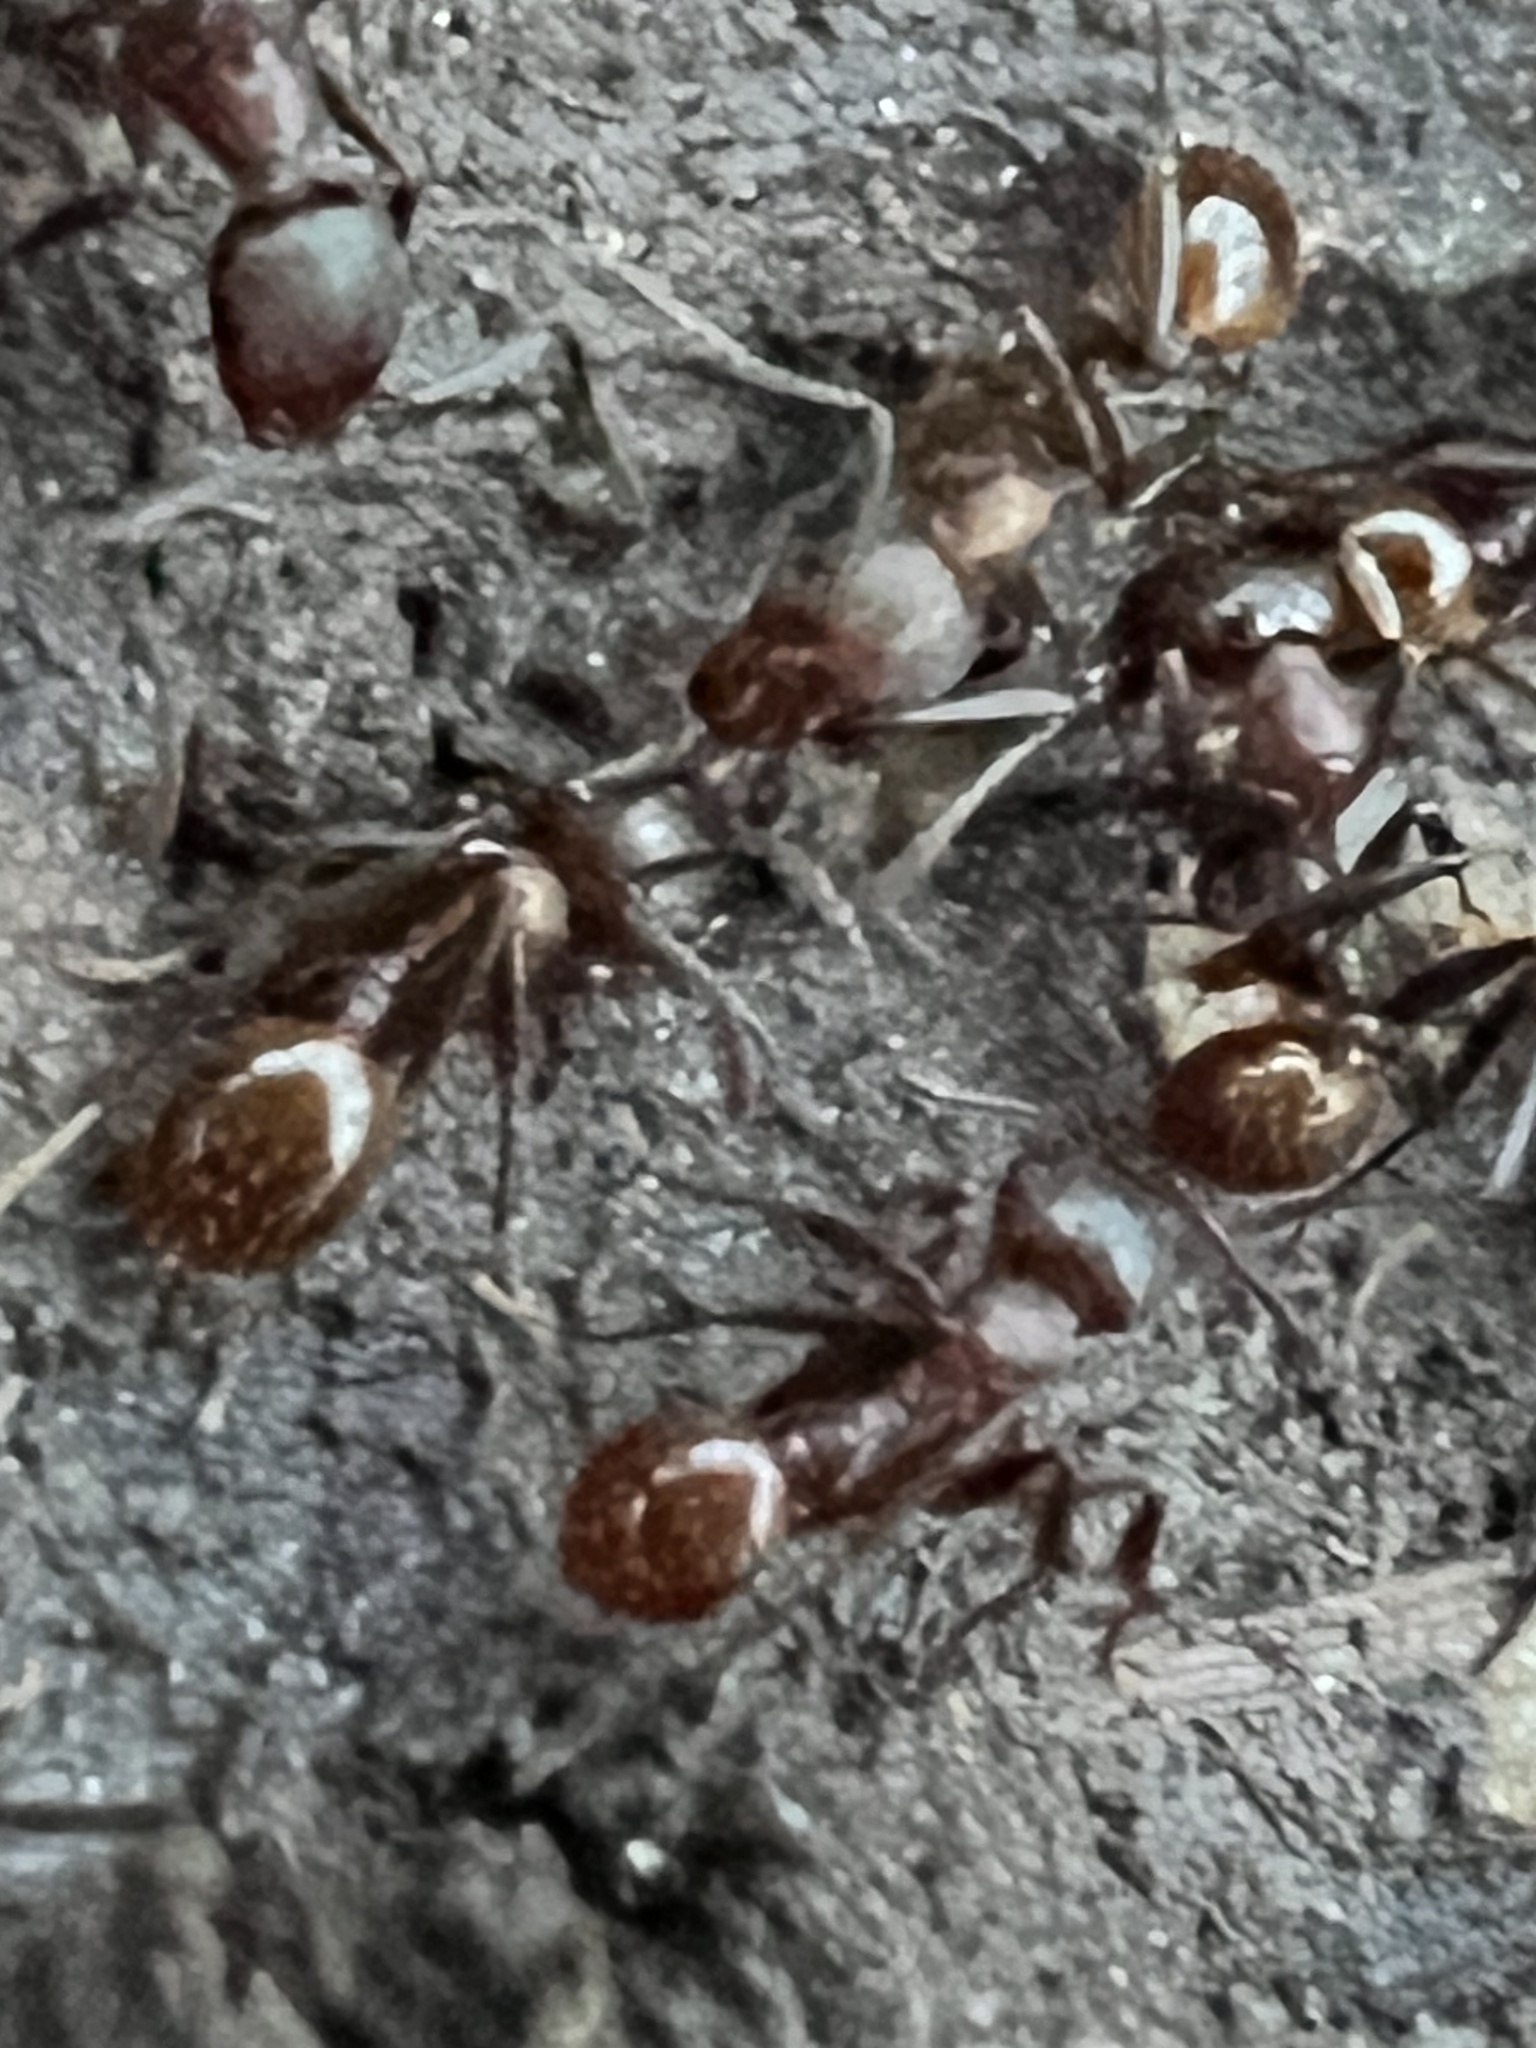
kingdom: Animalia
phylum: Arthropoda
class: Insecta
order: Hymenoptera
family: Formicidae
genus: Aphaenogaster
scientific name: Aphaenogaster fulva
